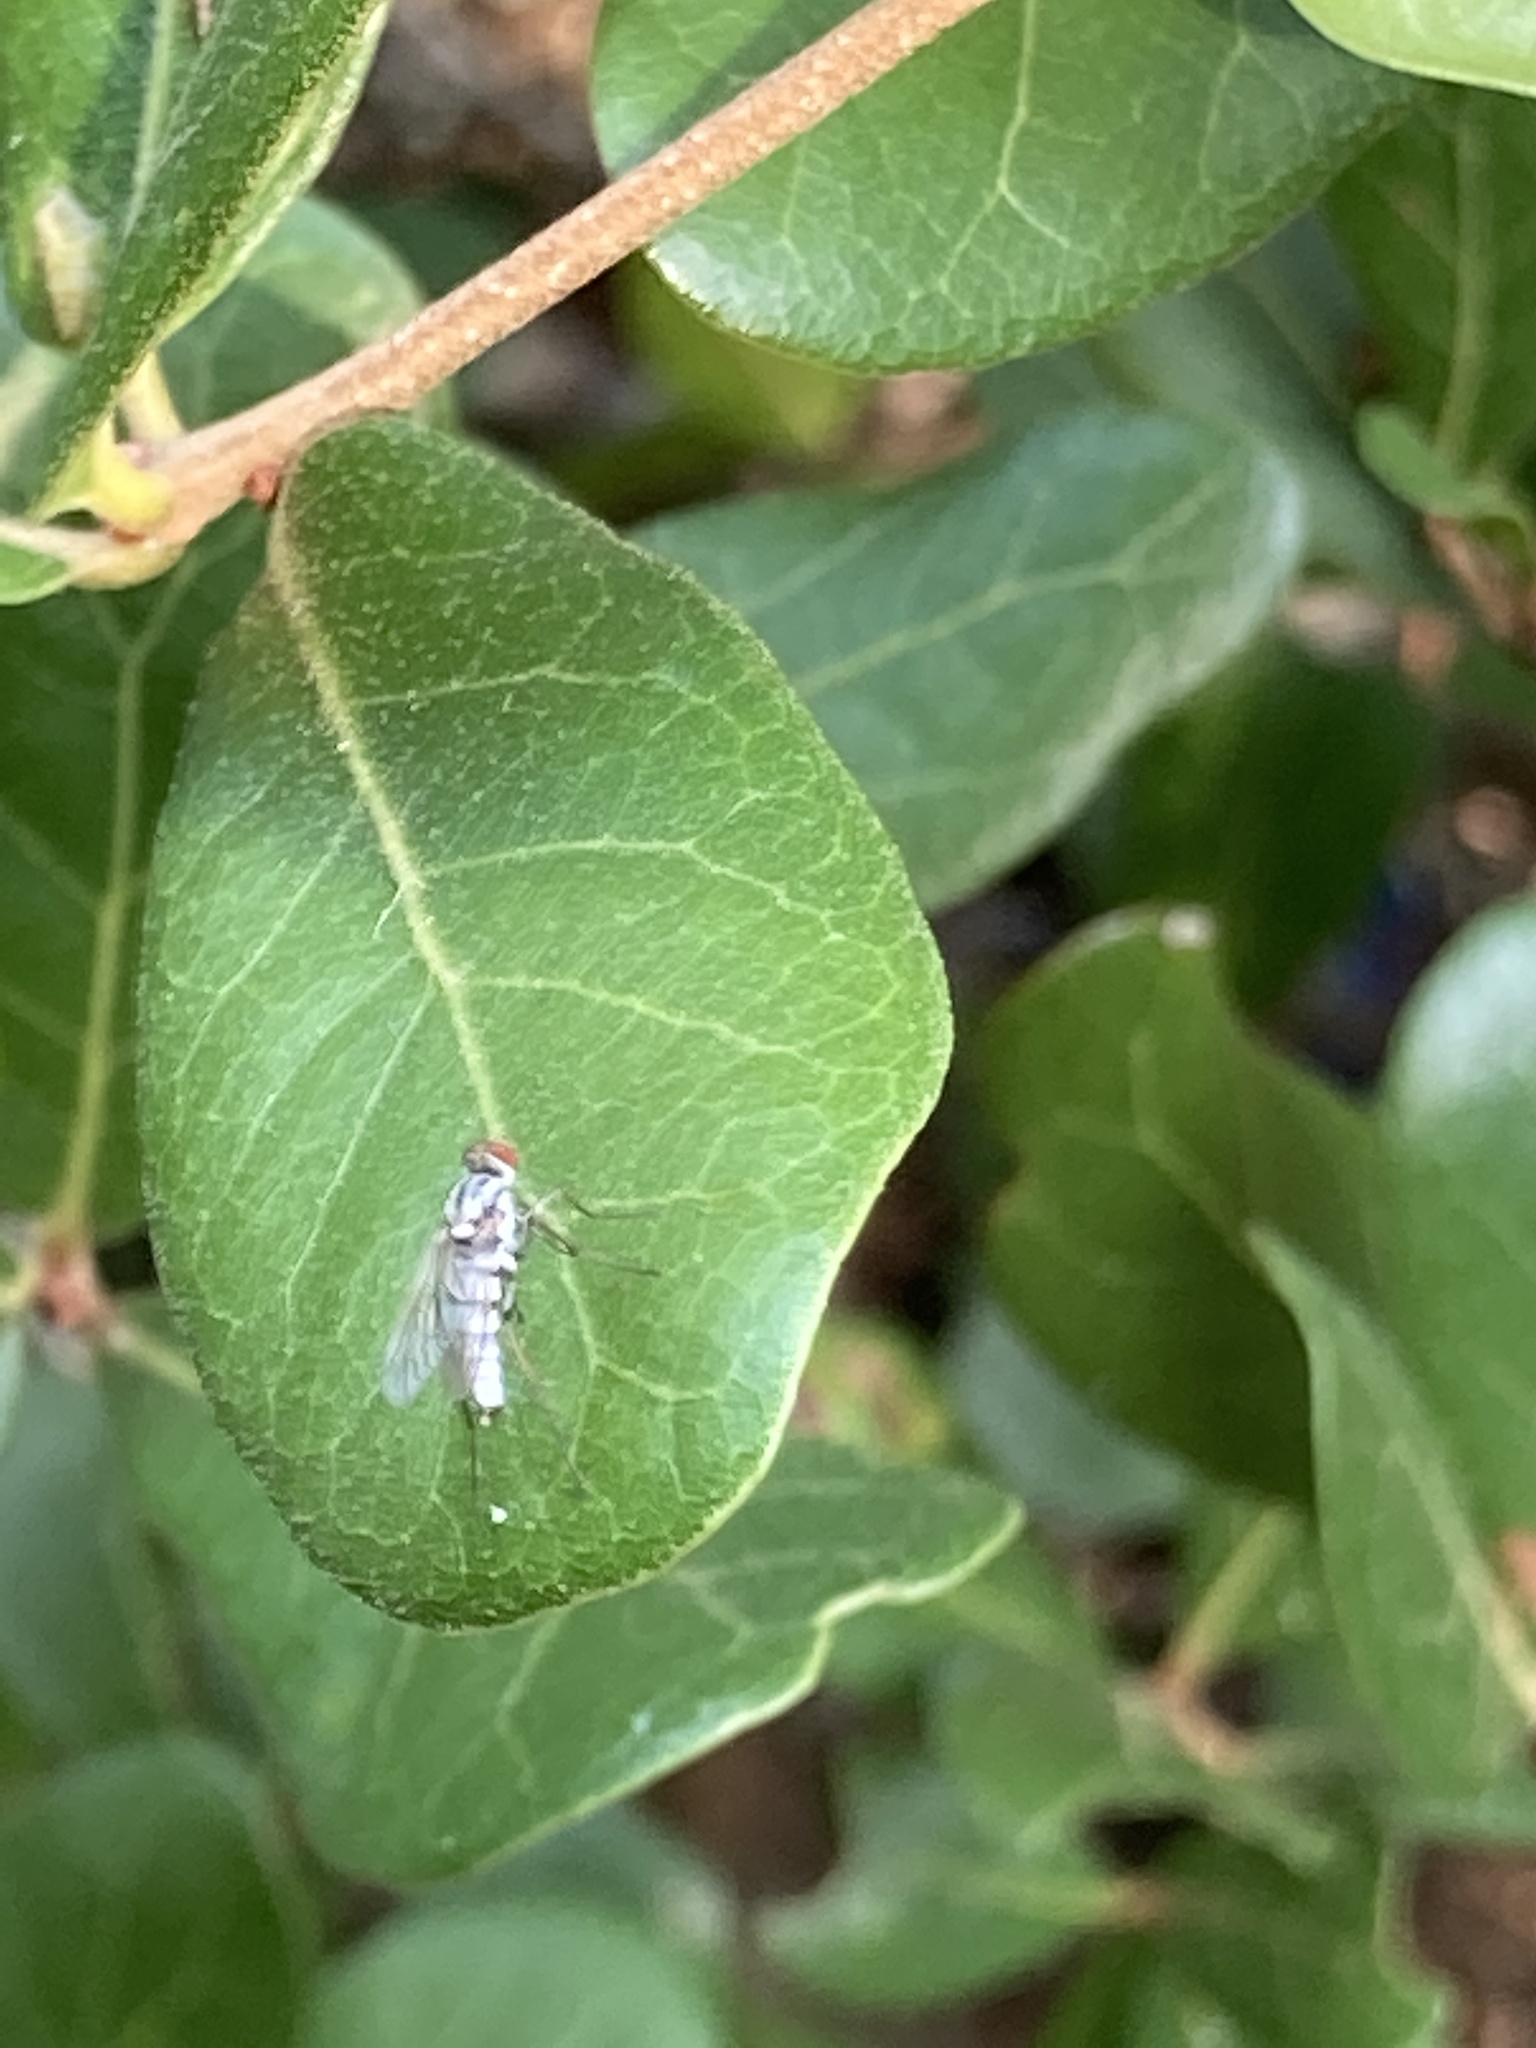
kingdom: Animalia
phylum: Arthropoda
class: Insecta
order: Diptera
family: Therevidae
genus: Penniverpa
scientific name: Penniverpa festina
